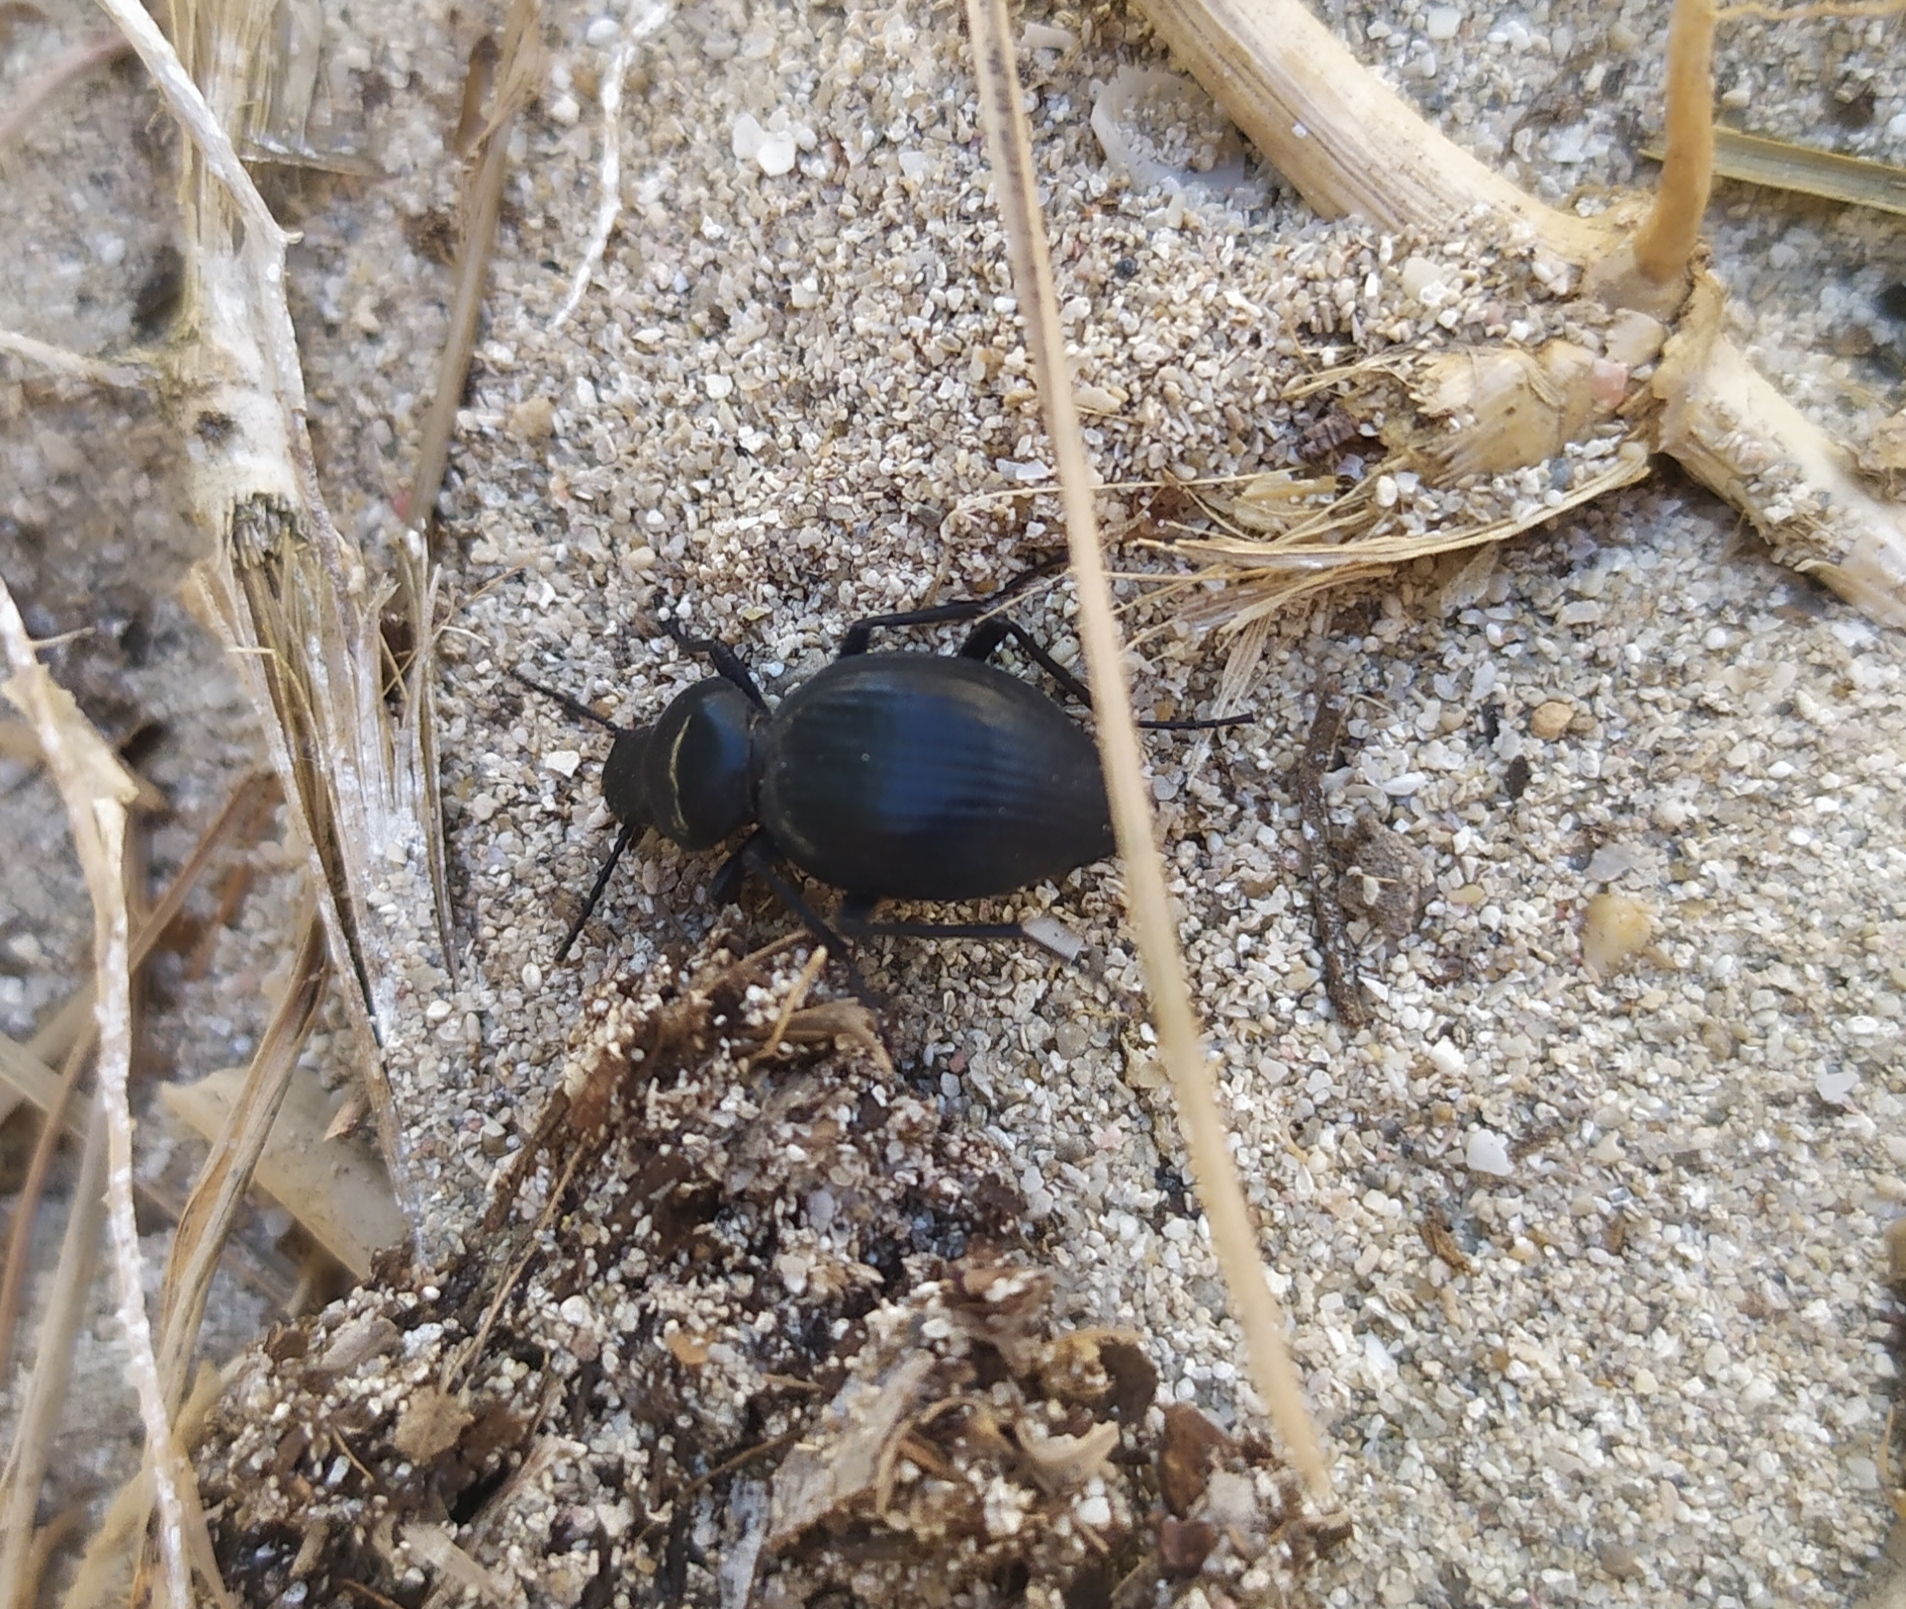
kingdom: Animalia
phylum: Arthropoda
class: Insecta
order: Coleoptera
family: Tenebrionidae
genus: Tentyria
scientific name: Tentyria schaumii
